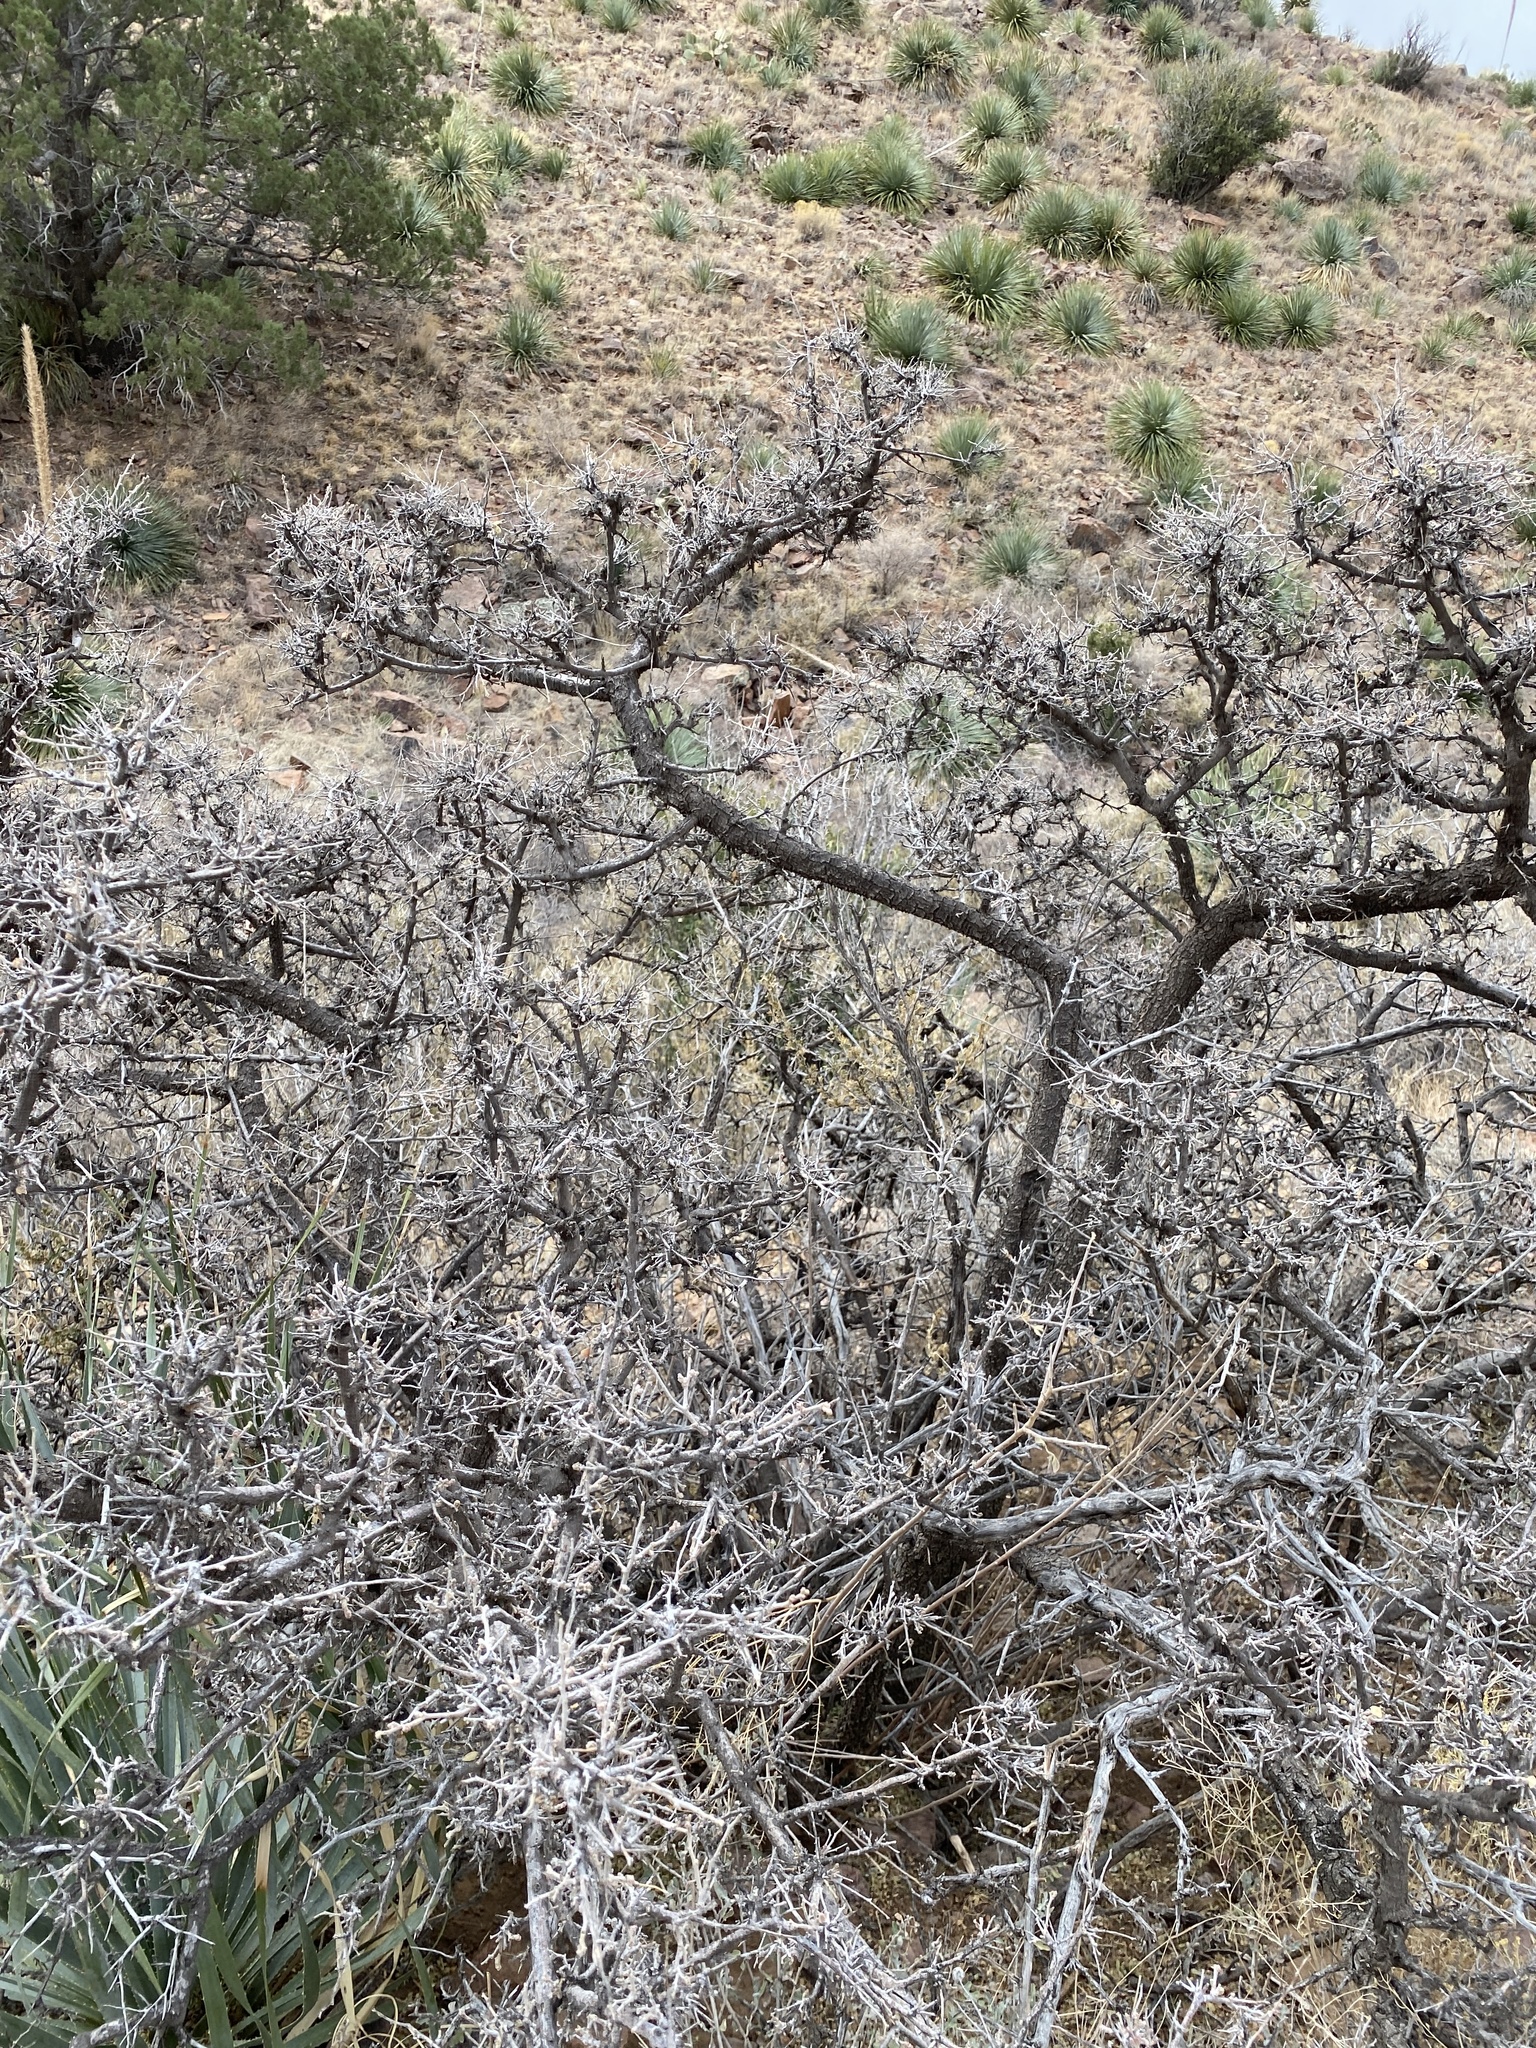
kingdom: Plantae
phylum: Tracheophyta
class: Magnoliopsida
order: Sapindales
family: Anacardiaceae
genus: Rhus
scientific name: Rhus microphylla
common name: Desert sumac
